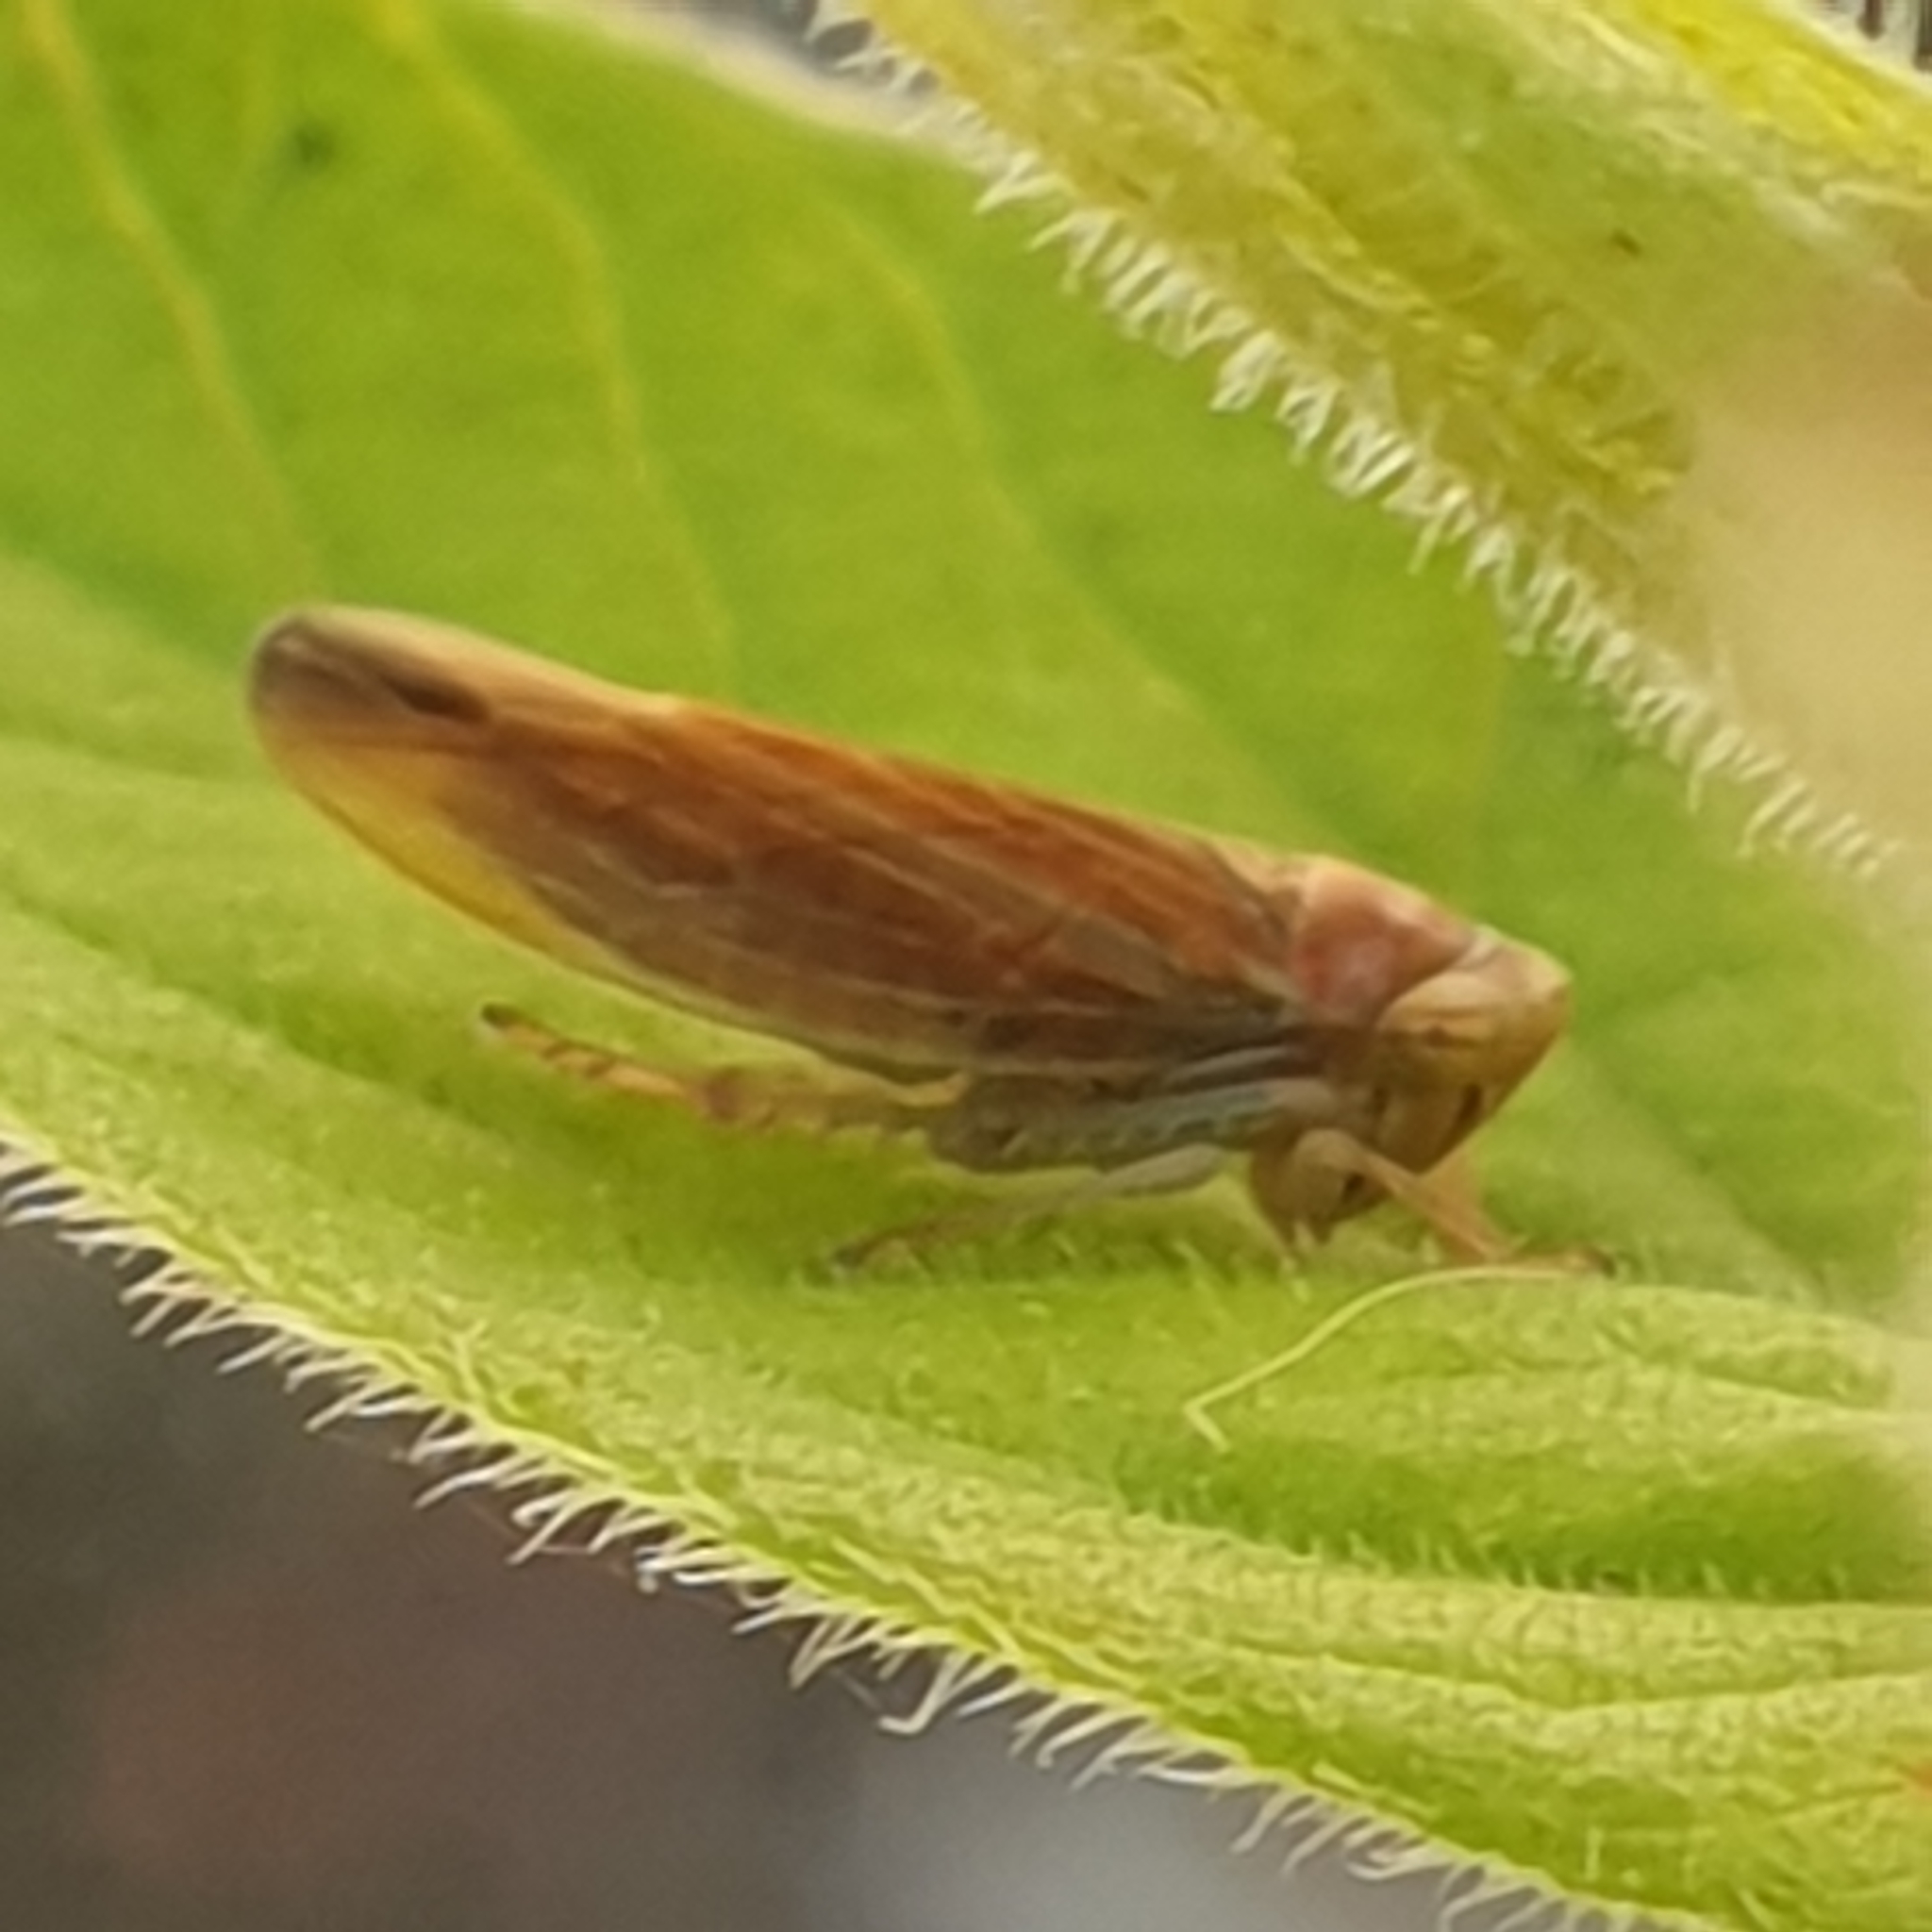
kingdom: Animalia
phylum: Arthropoda
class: Insecta
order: Hemiptera
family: Cicadellidae
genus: Idiodonus
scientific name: Idiodonus cruentatus
